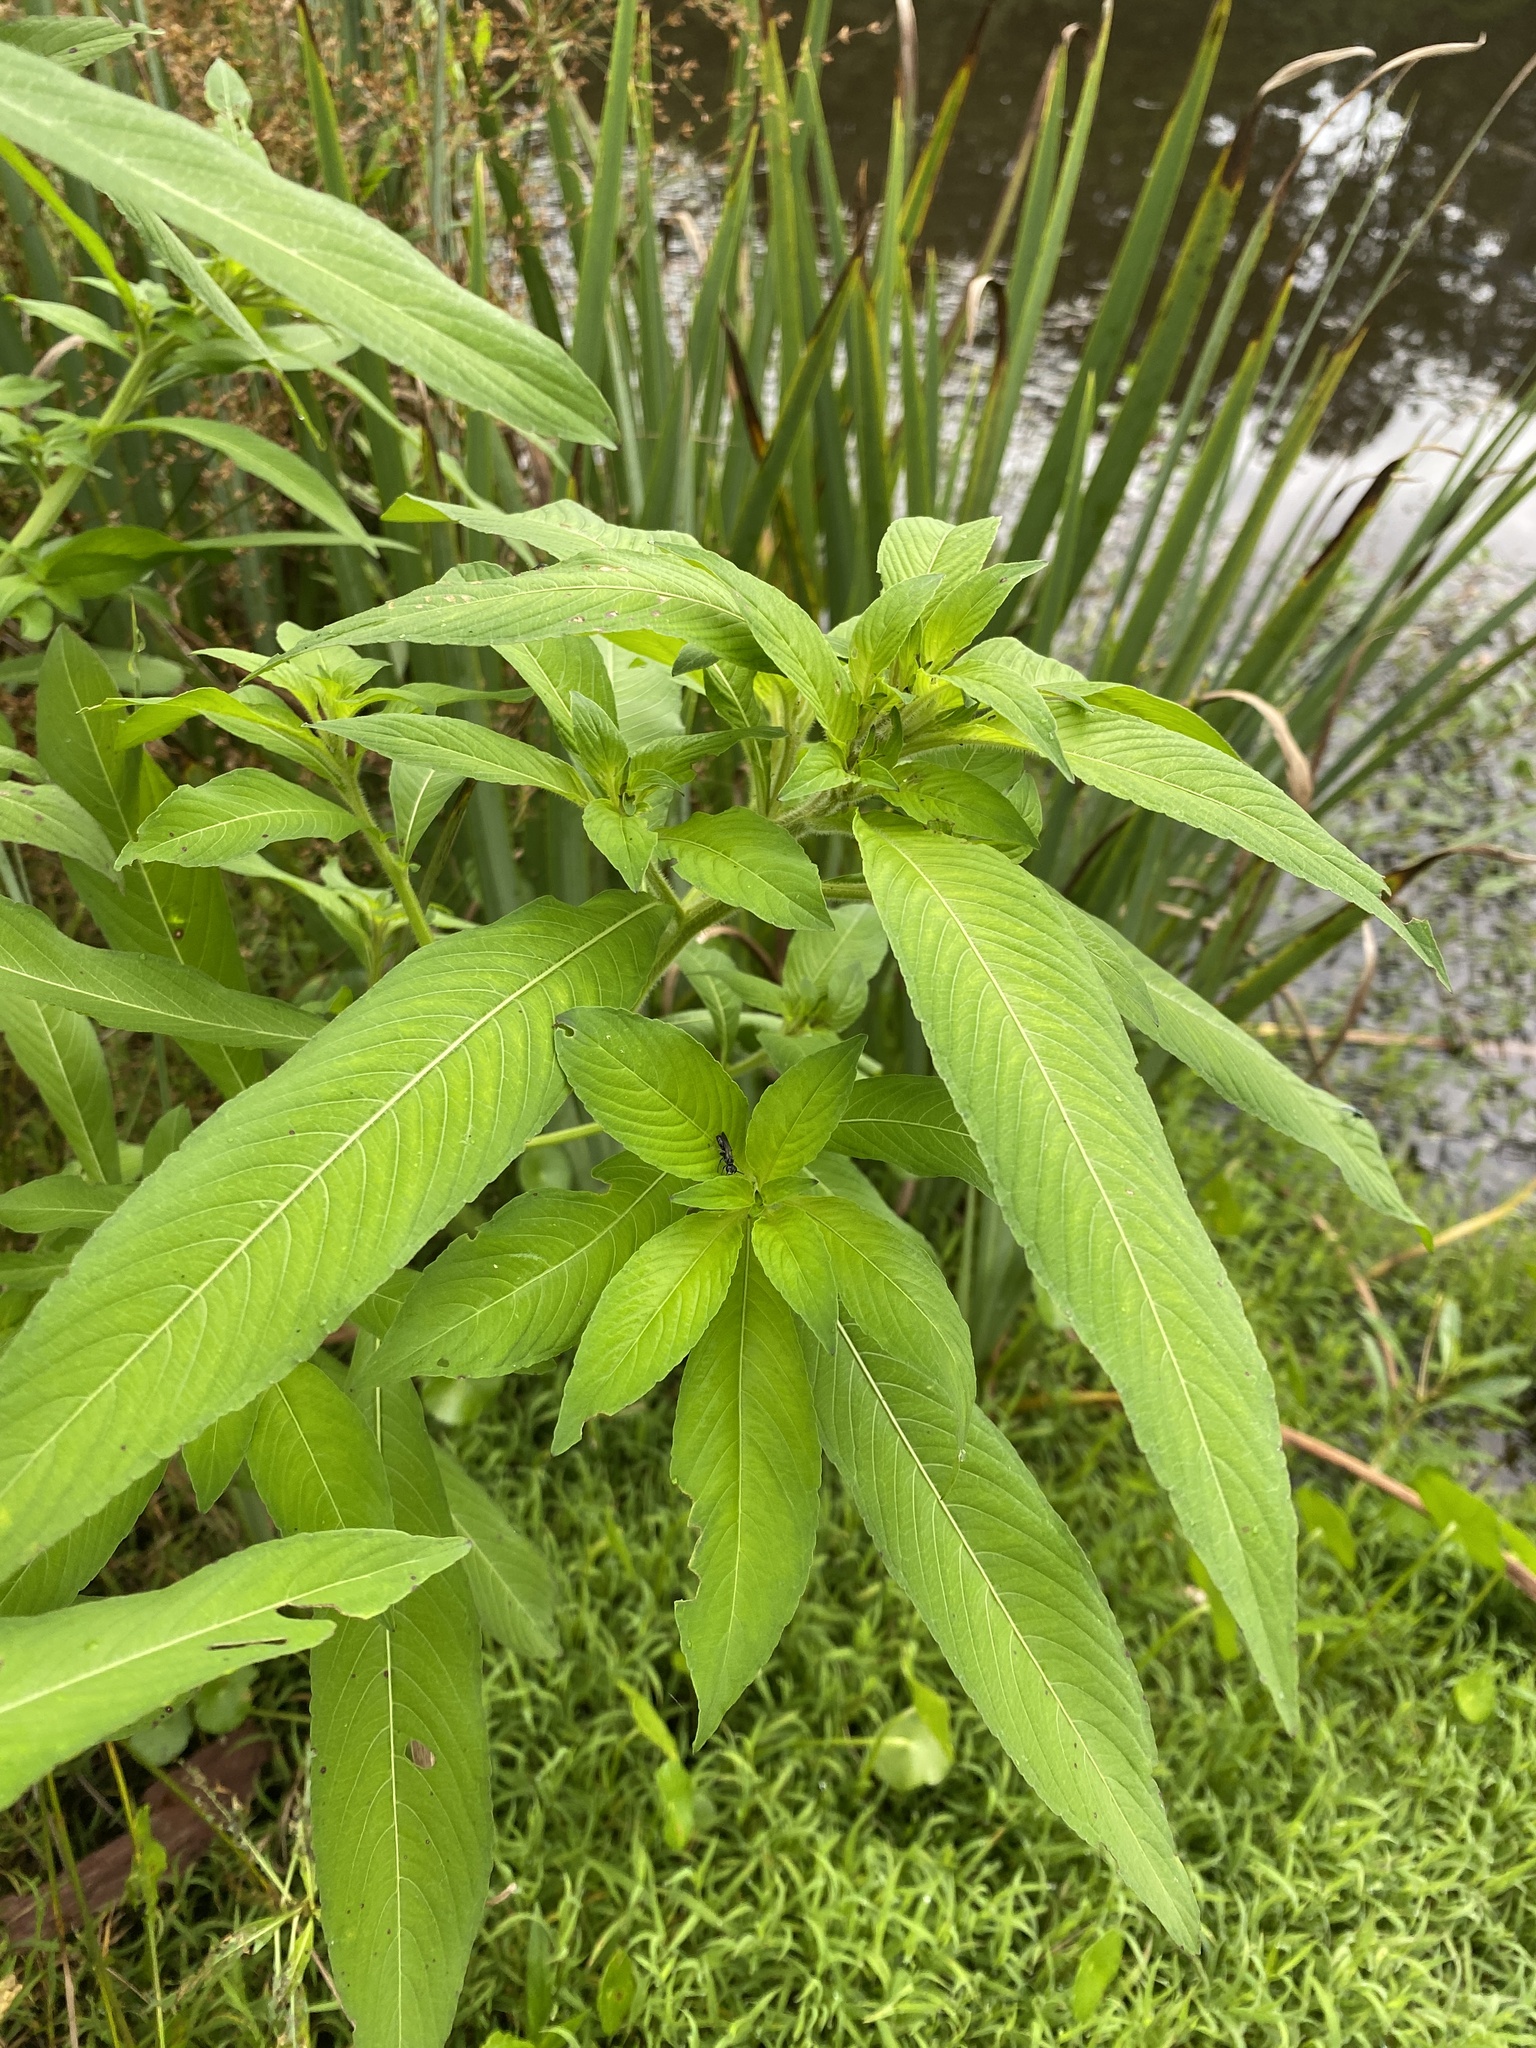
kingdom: Plantae
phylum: Tracheophyta
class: Magnoliopsida
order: Myrtales
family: Onagraceae
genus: Ludwigia
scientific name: Ludwigia leptocarpa
